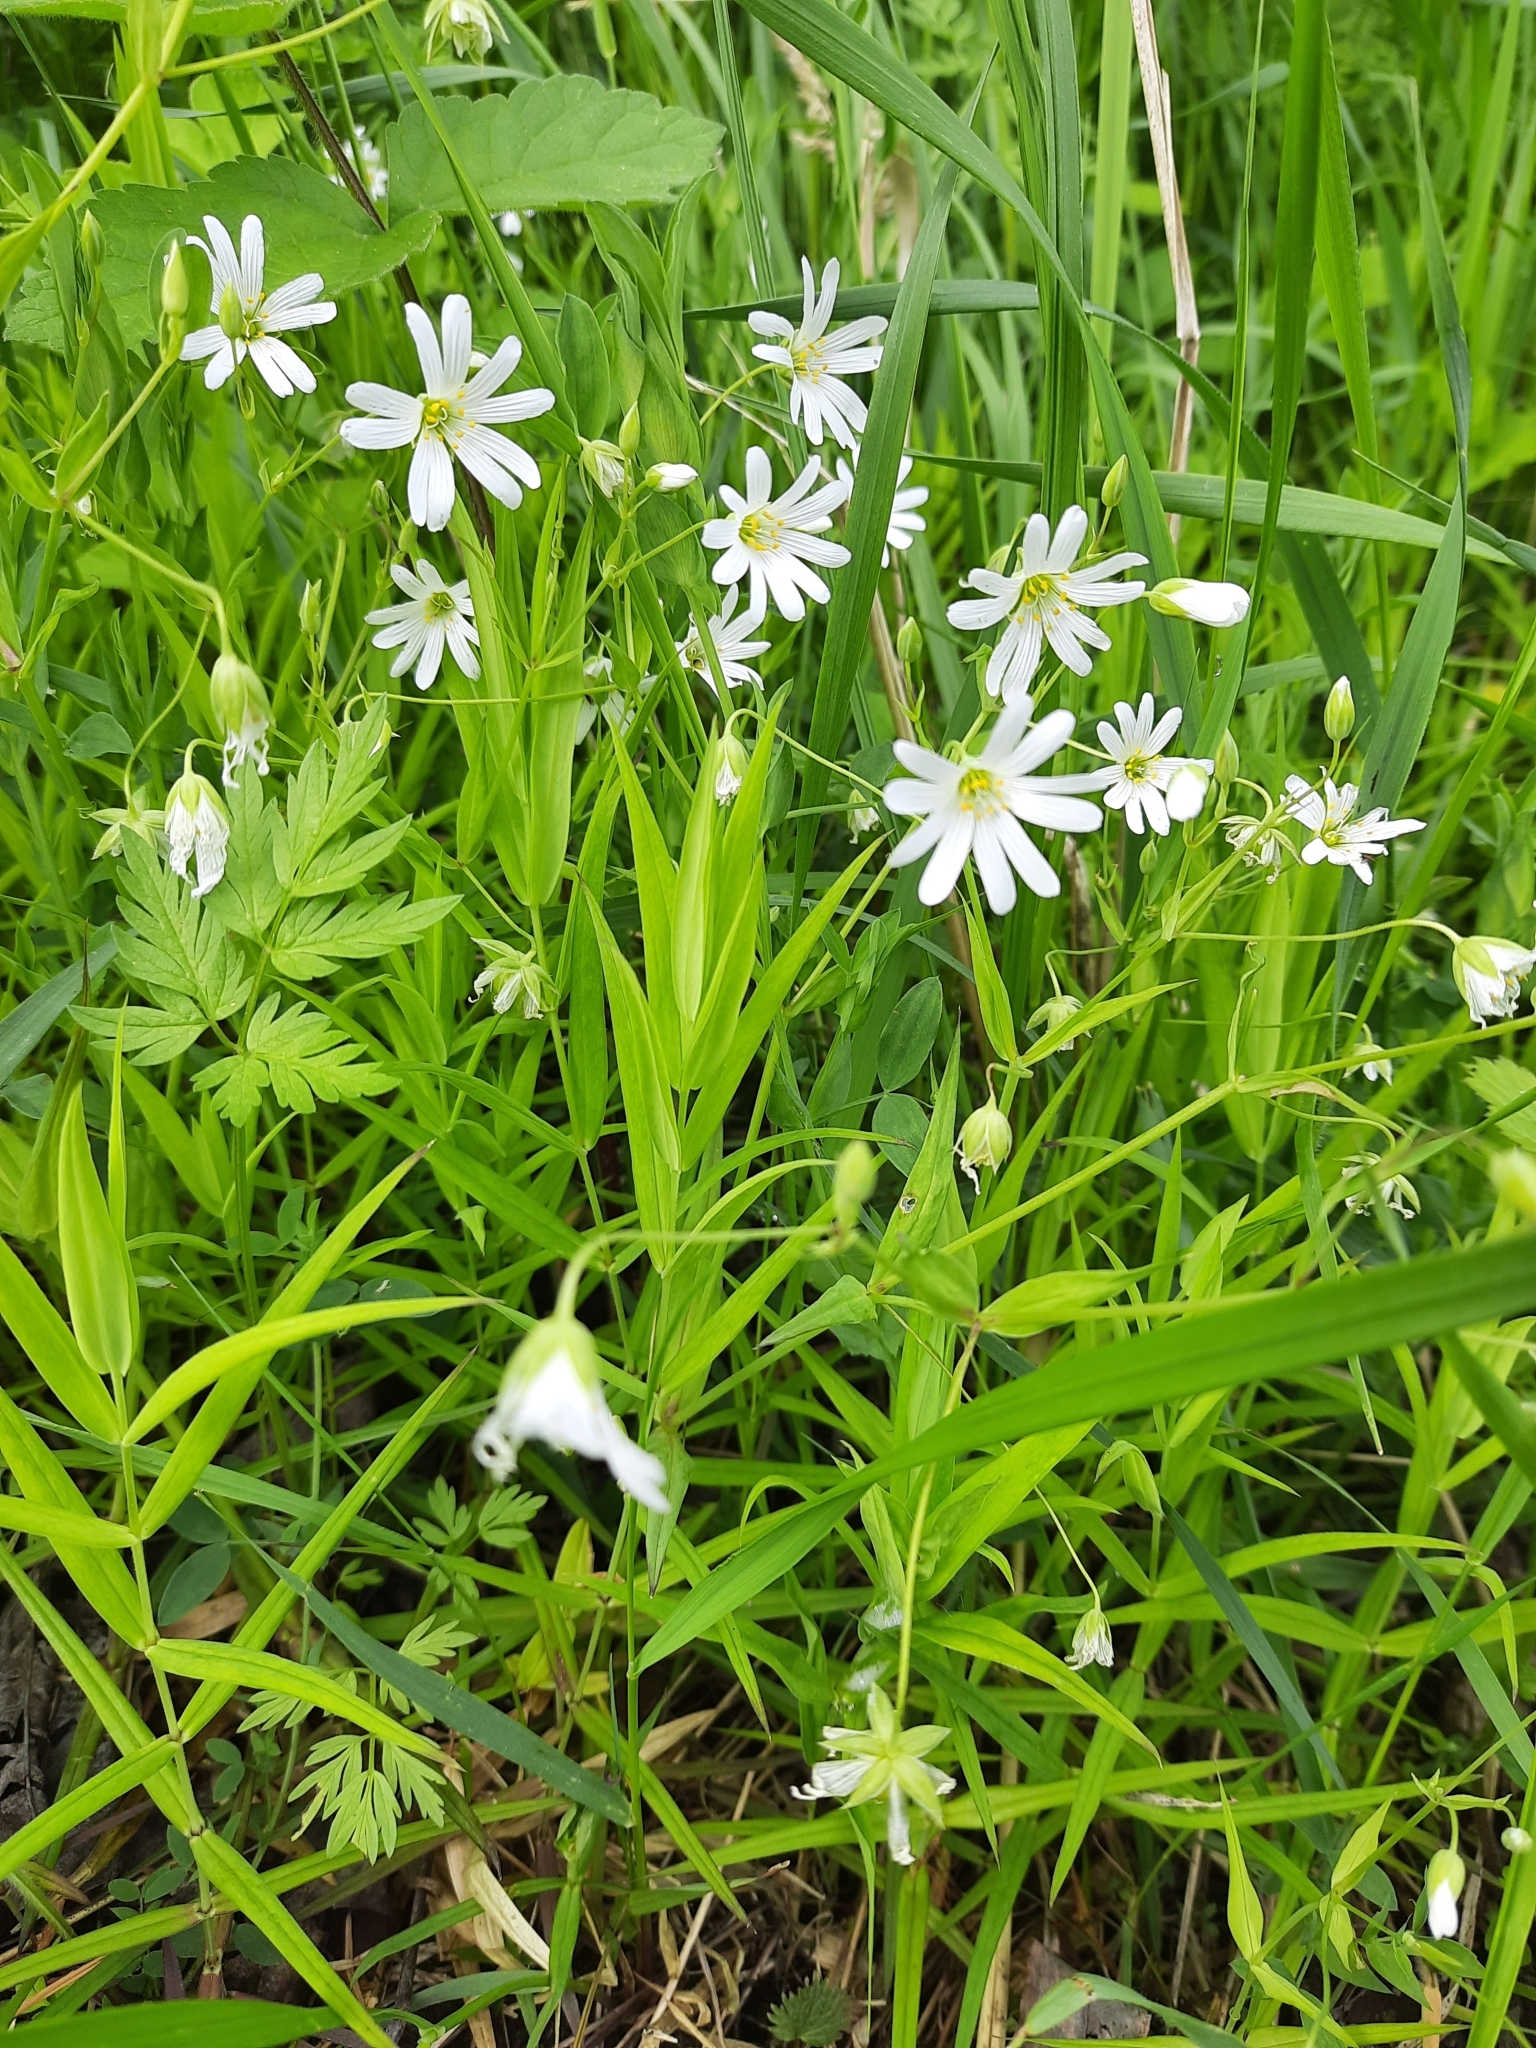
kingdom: Plantae
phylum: Tracheophyta
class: Magnoliopsida
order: Caryophyllales
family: Caryophyllaceae
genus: Rabelera
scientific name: Rabelera holostea
